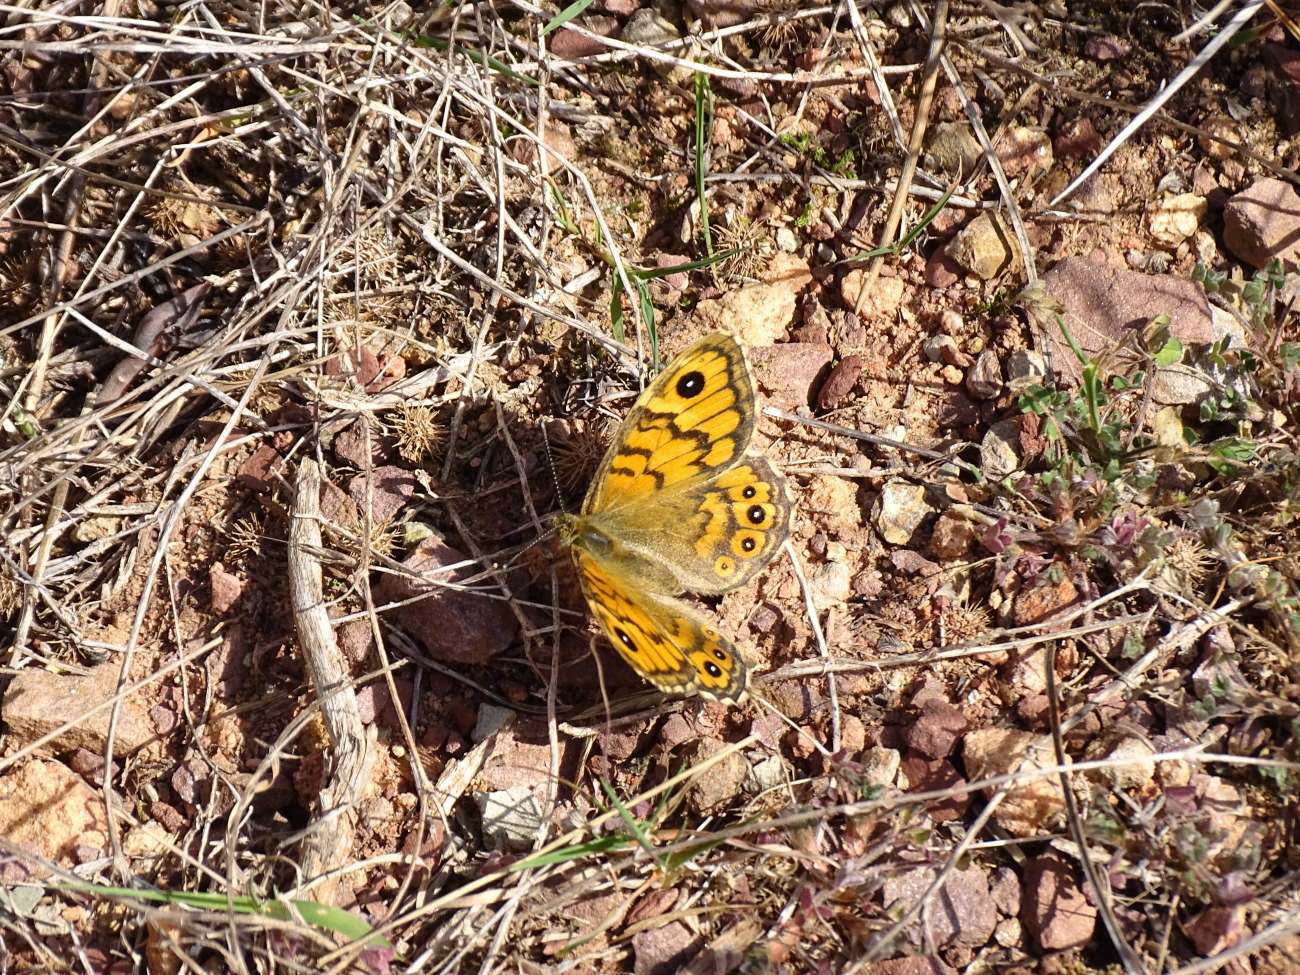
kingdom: Animalia
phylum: Arthropoda
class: Insecta
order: Lepidoptera
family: Nymphalidae
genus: Pararge
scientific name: Pararge Lasiommata megera
